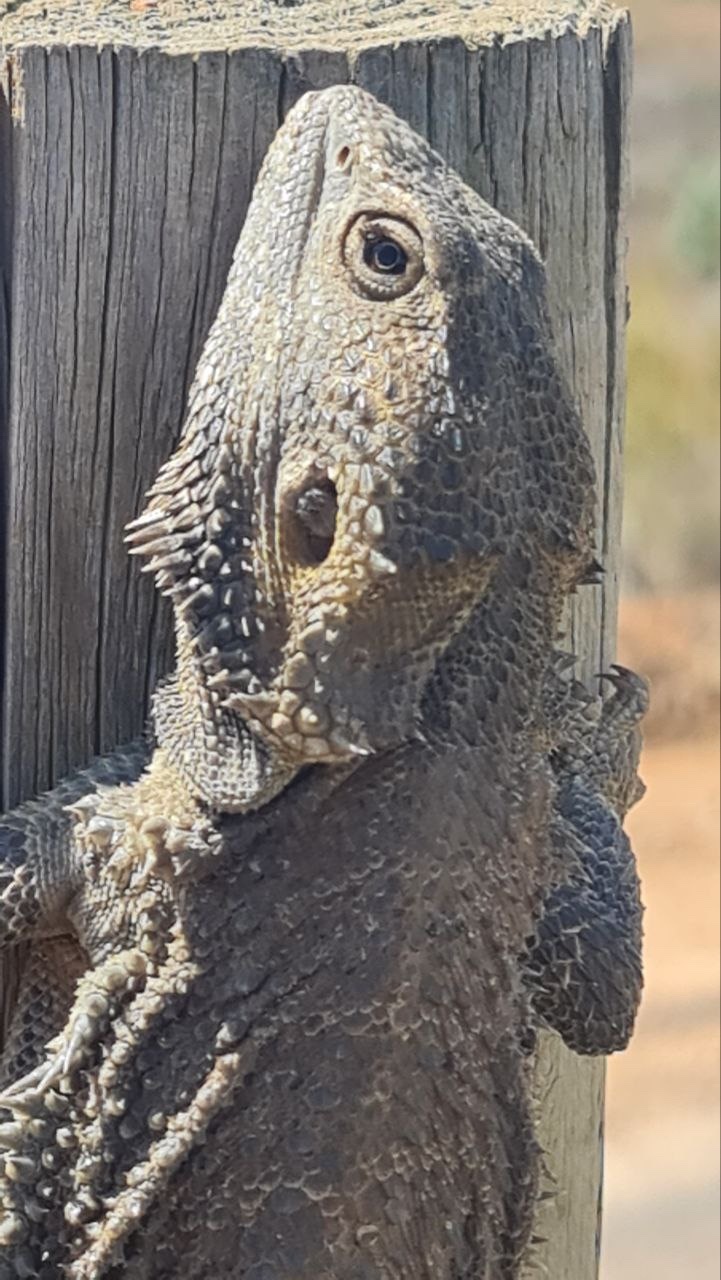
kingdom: Animalia
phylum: Chordata
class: Squamata
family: Agamidae
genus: Pogona
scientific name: Pogona vitticeps
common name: Central bearded dragon
